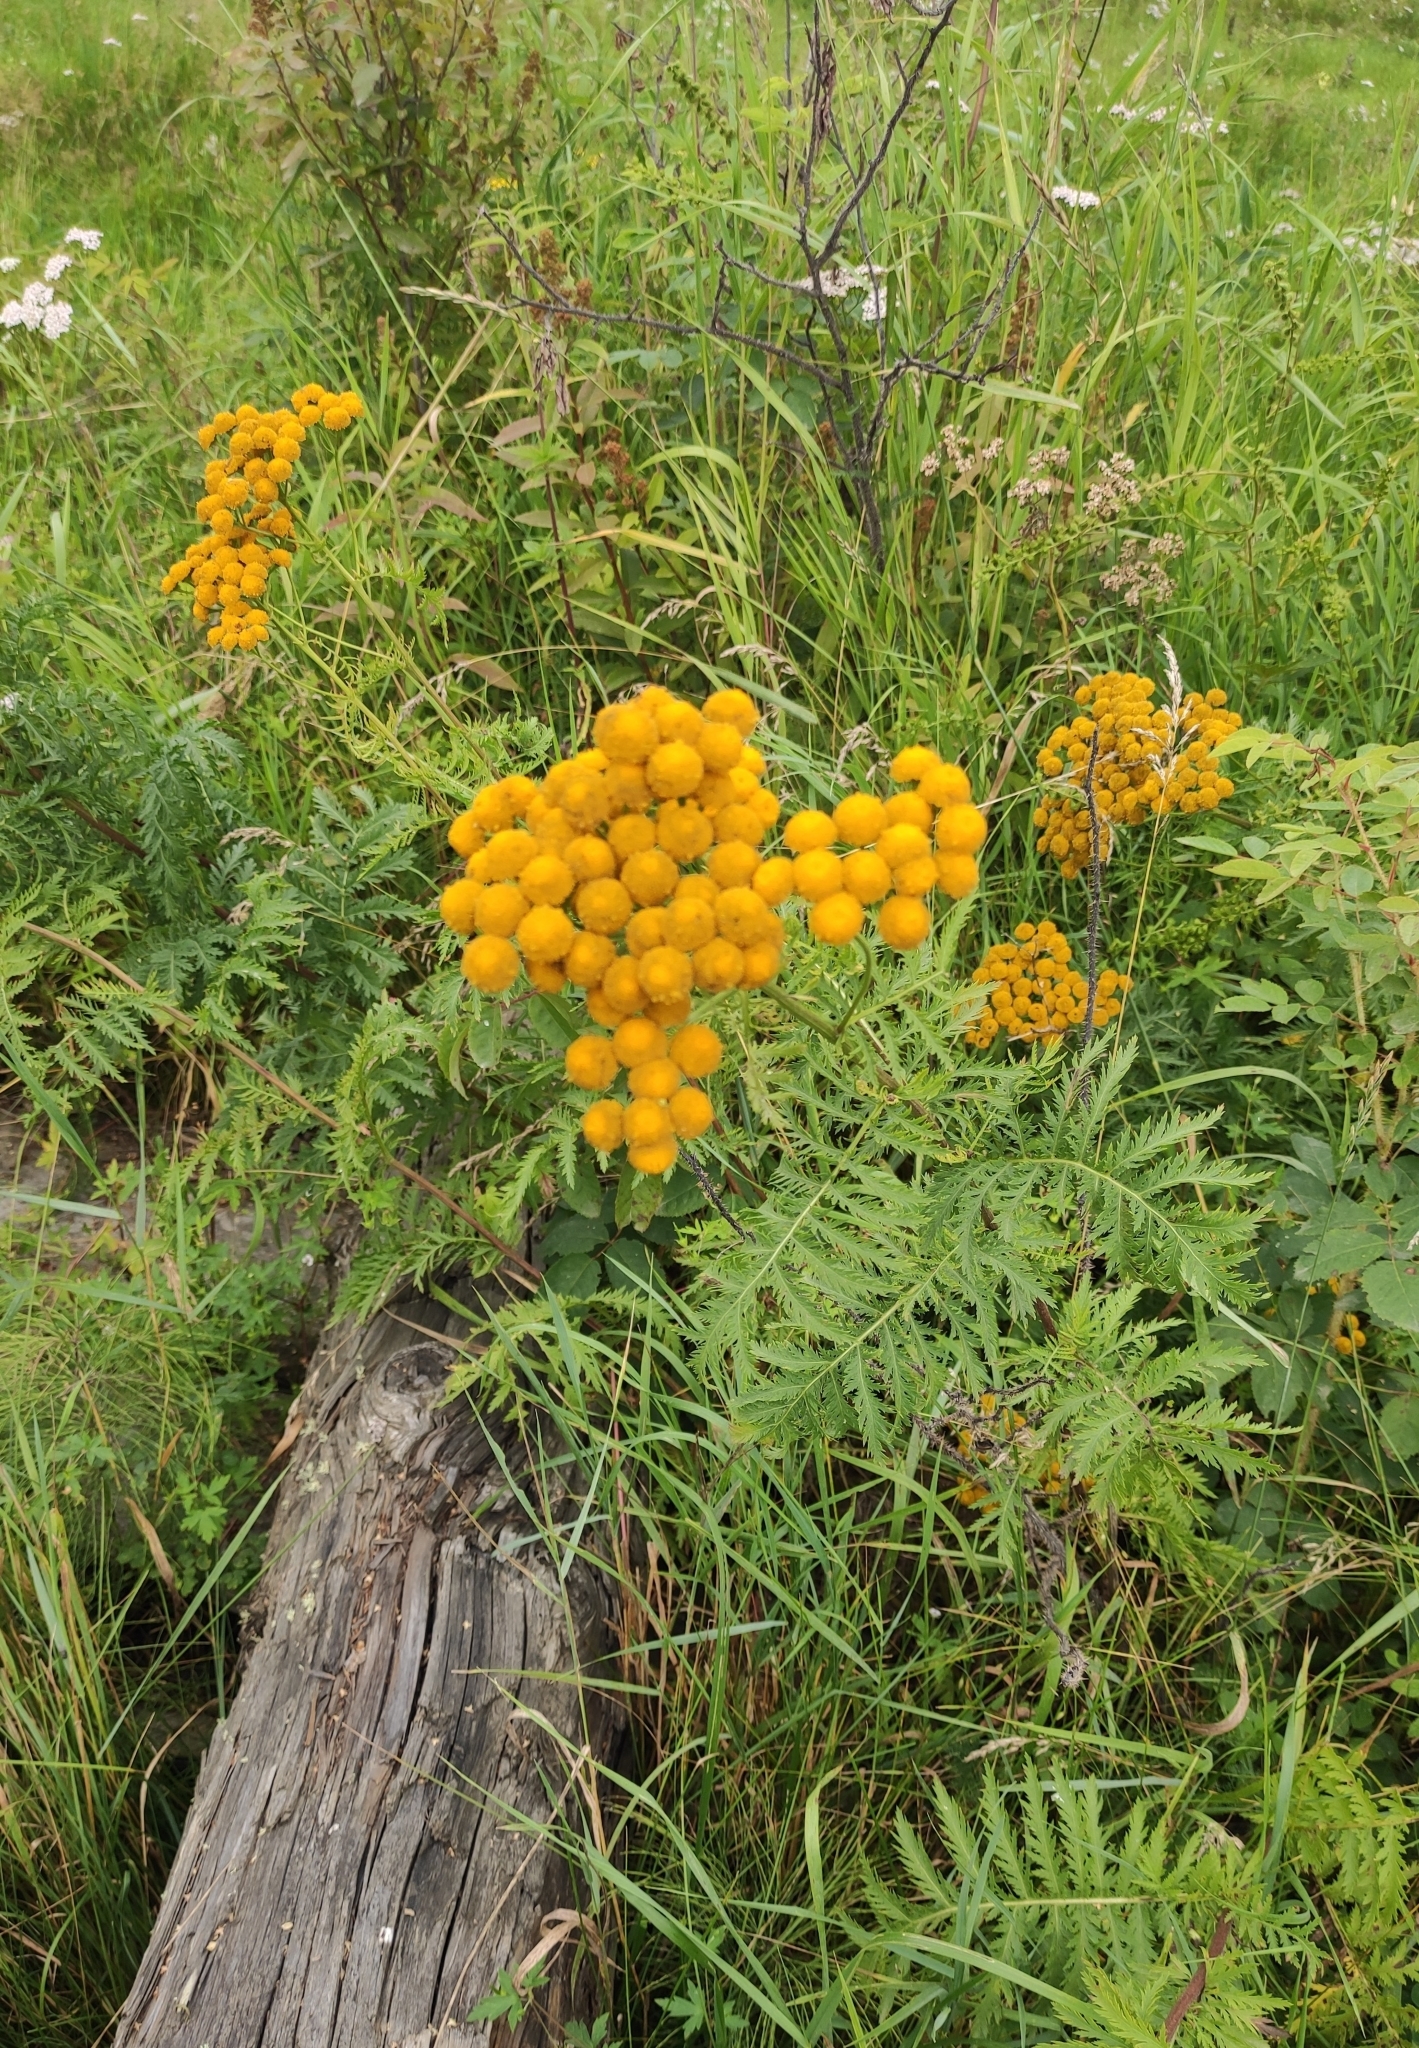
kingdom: Plantae
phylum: Tracheophyta
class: Magnoliopsida
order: Asterales
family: Asteraceae
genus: Tanacetum
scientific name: Tanacetum vulgare
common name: Common tansy
